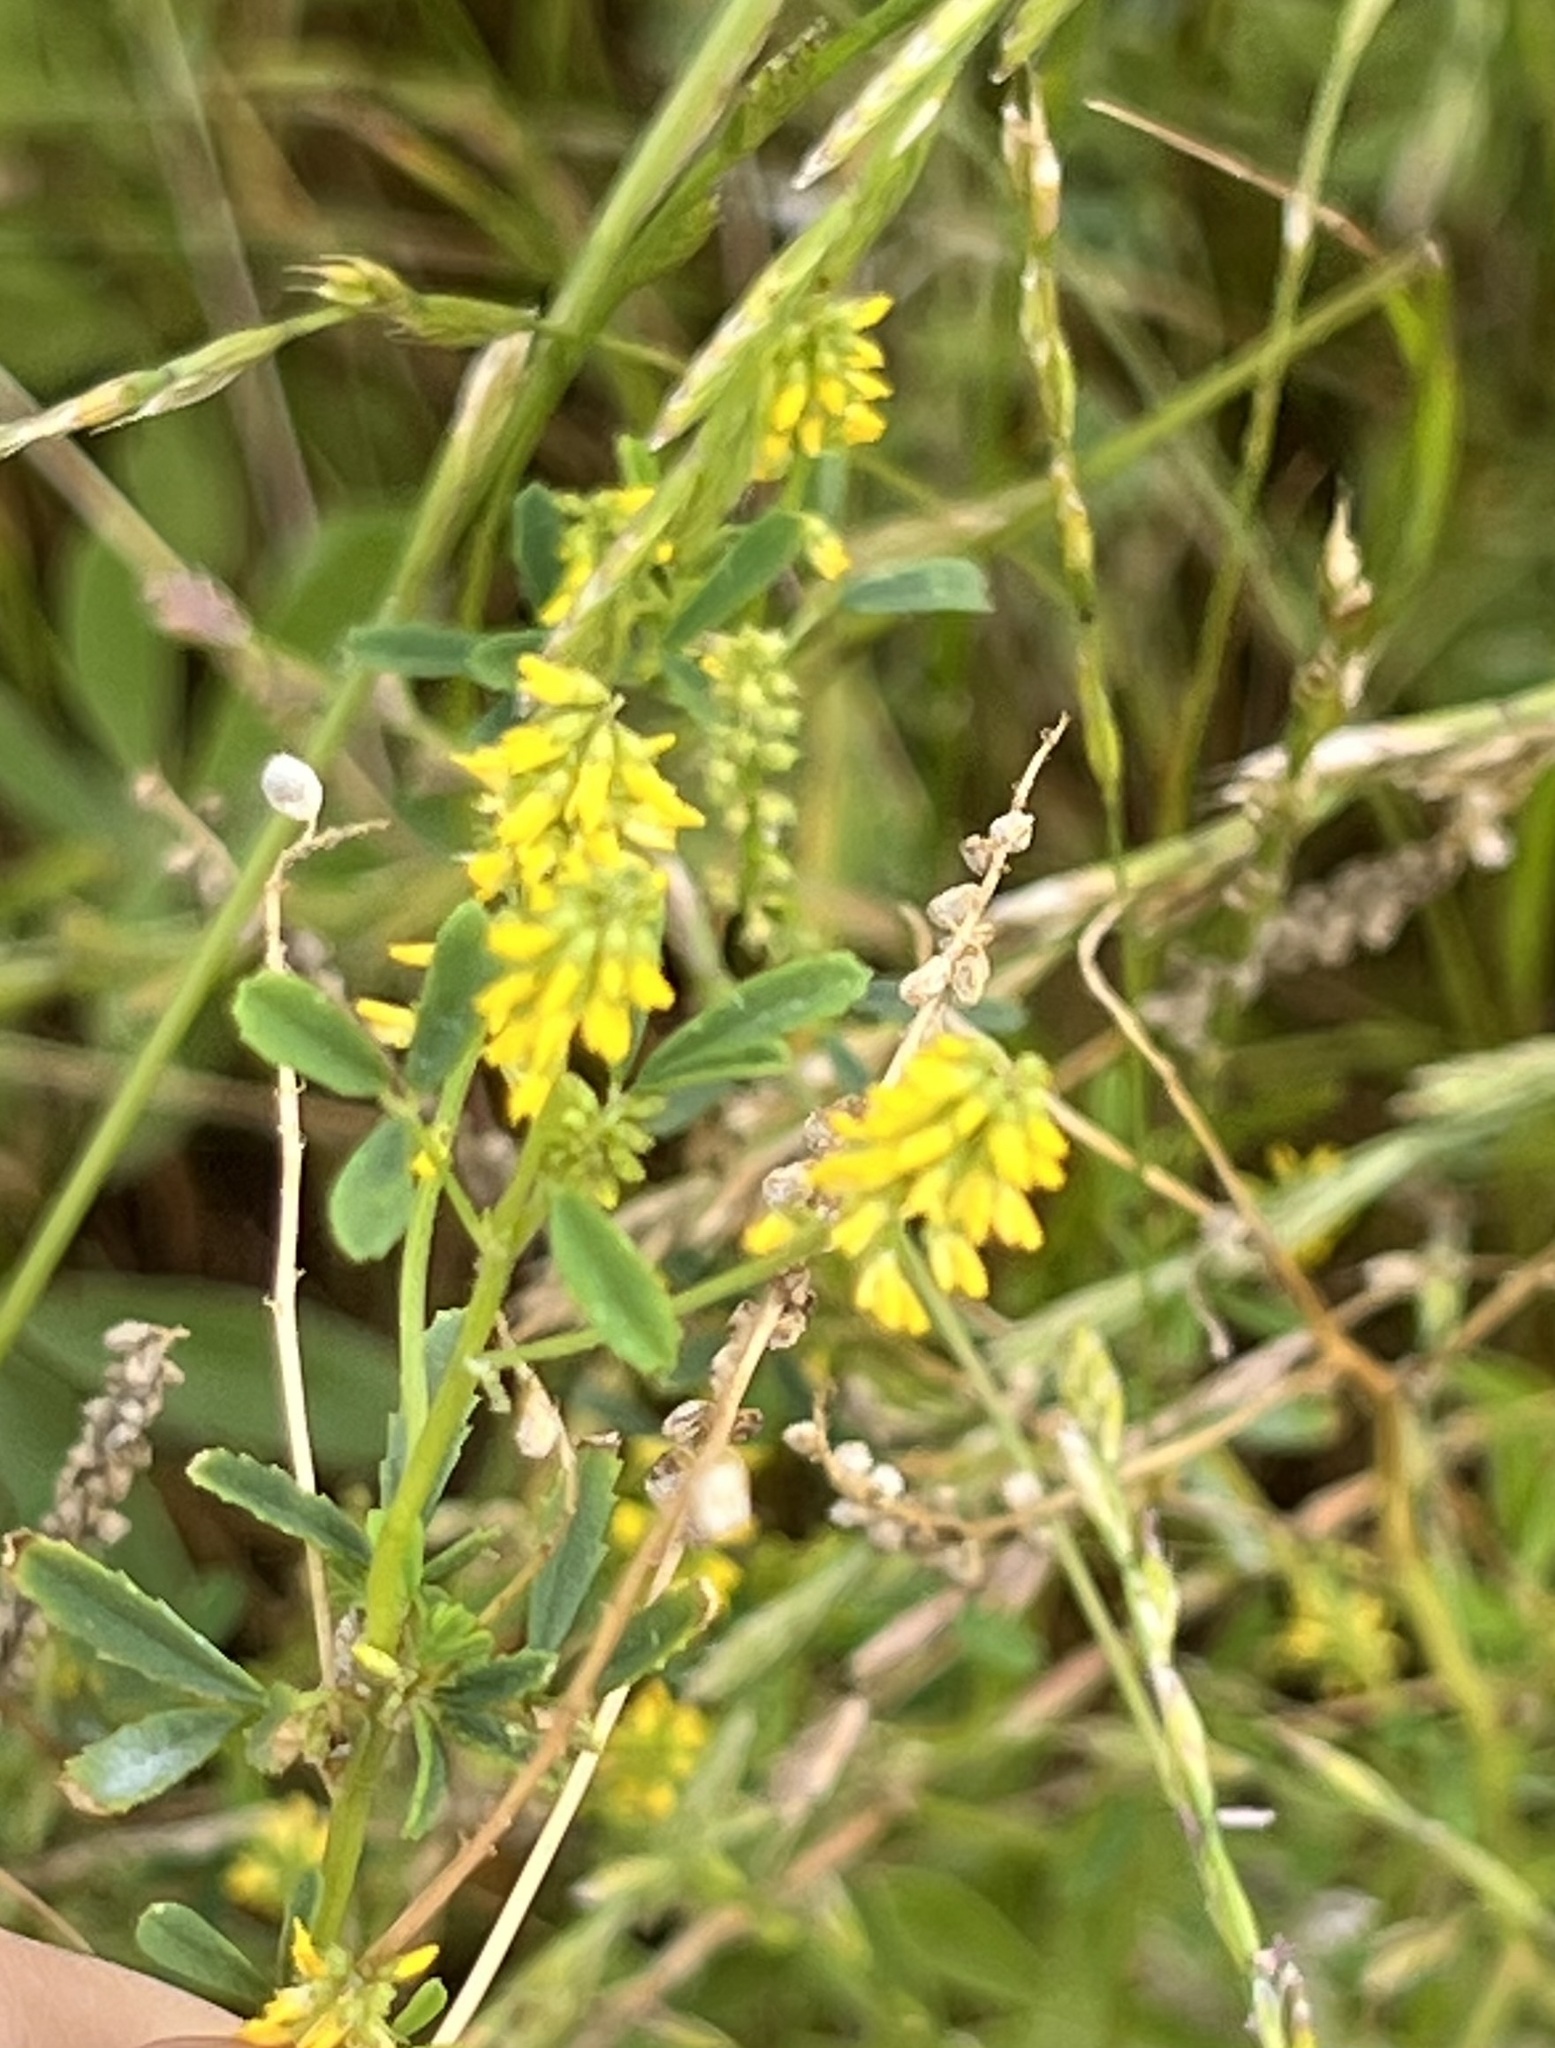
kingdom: Plantae
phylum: Tracheophyta
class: Magnoliopsida
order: Fabales
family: Fabaceae
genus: Melilotus
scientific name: Melilotus indicus
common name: Small melilot
